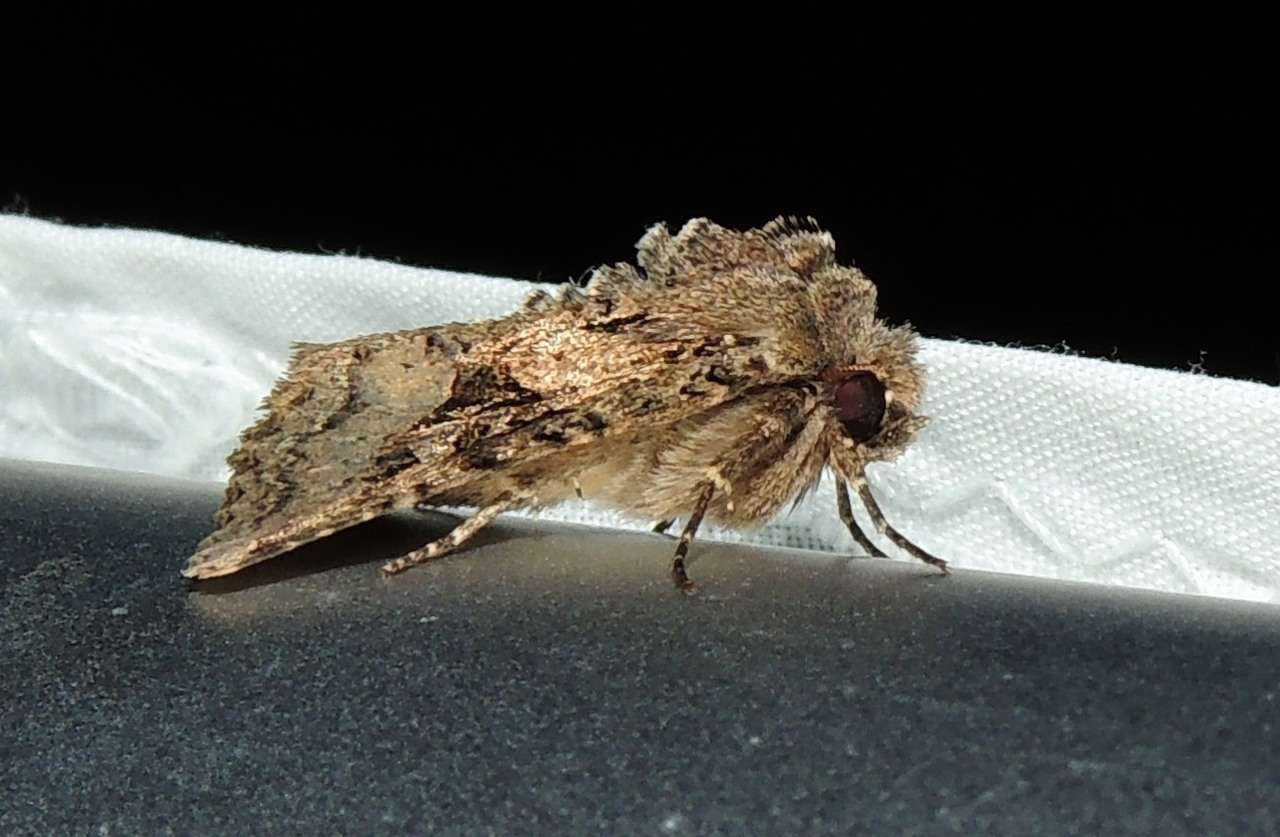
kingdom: Animalia
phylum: Arthropoda
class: Insecta
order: Lepidoptera
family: Noctuidae
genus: Neumichtis
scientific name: Neumichtis mesophaea
